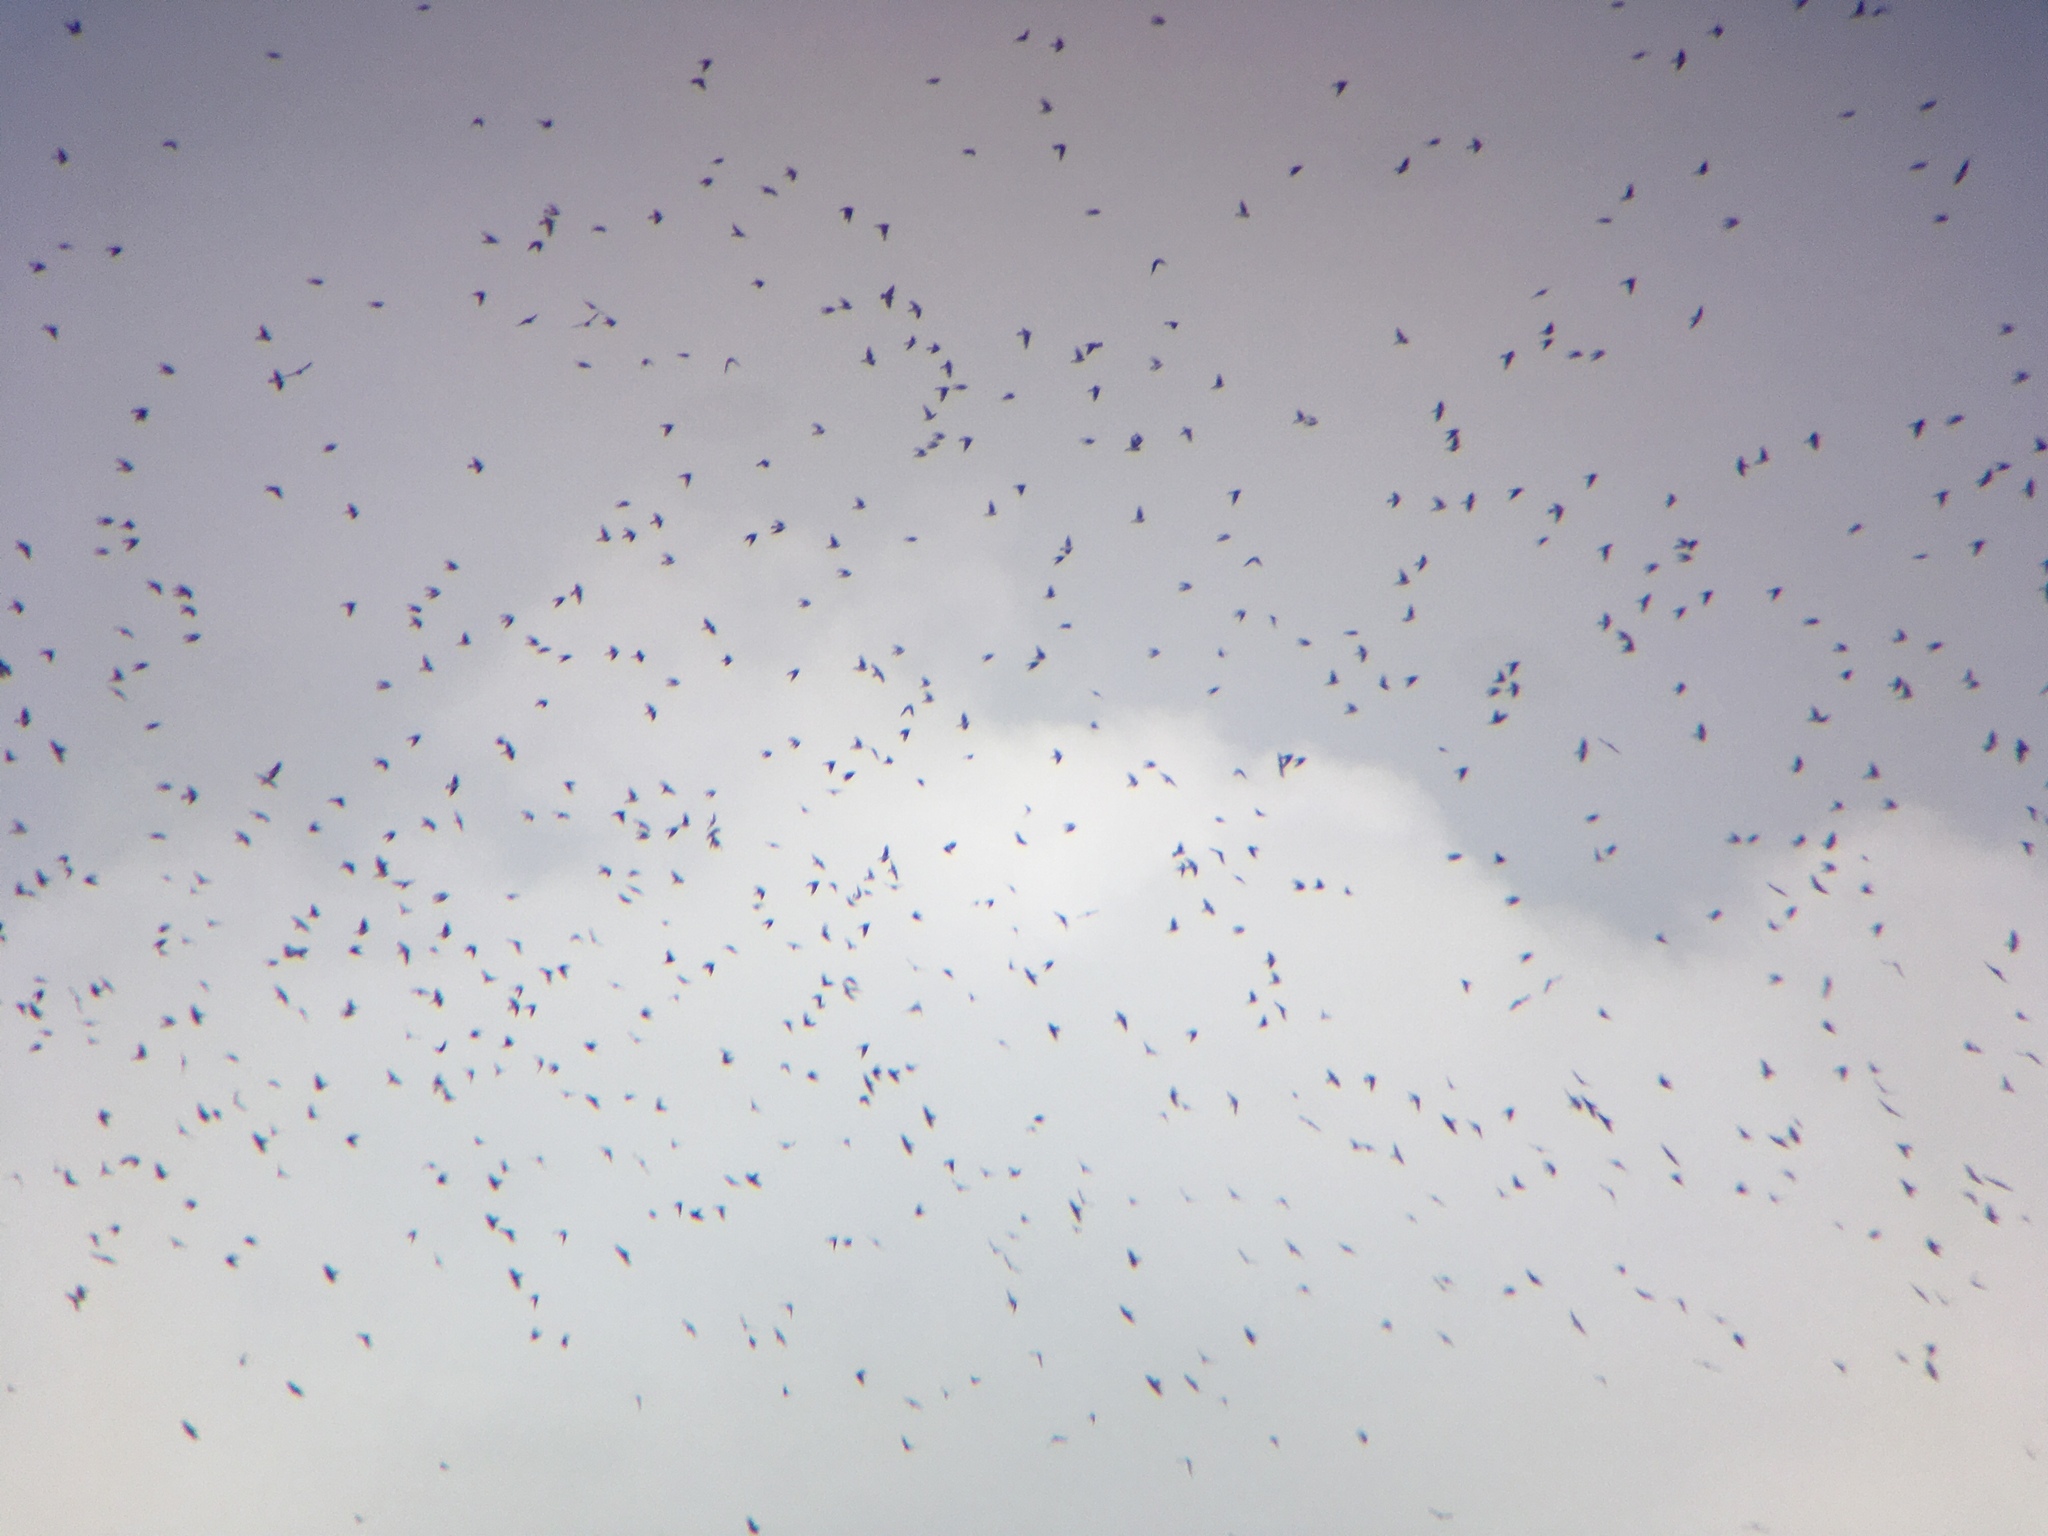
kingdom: Animalia
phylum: Chordata
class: Aves
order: Passeriformes
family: Hirundinidae
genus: Tachycineta
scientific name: Tachycineta bicolor
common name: Tree swallow
